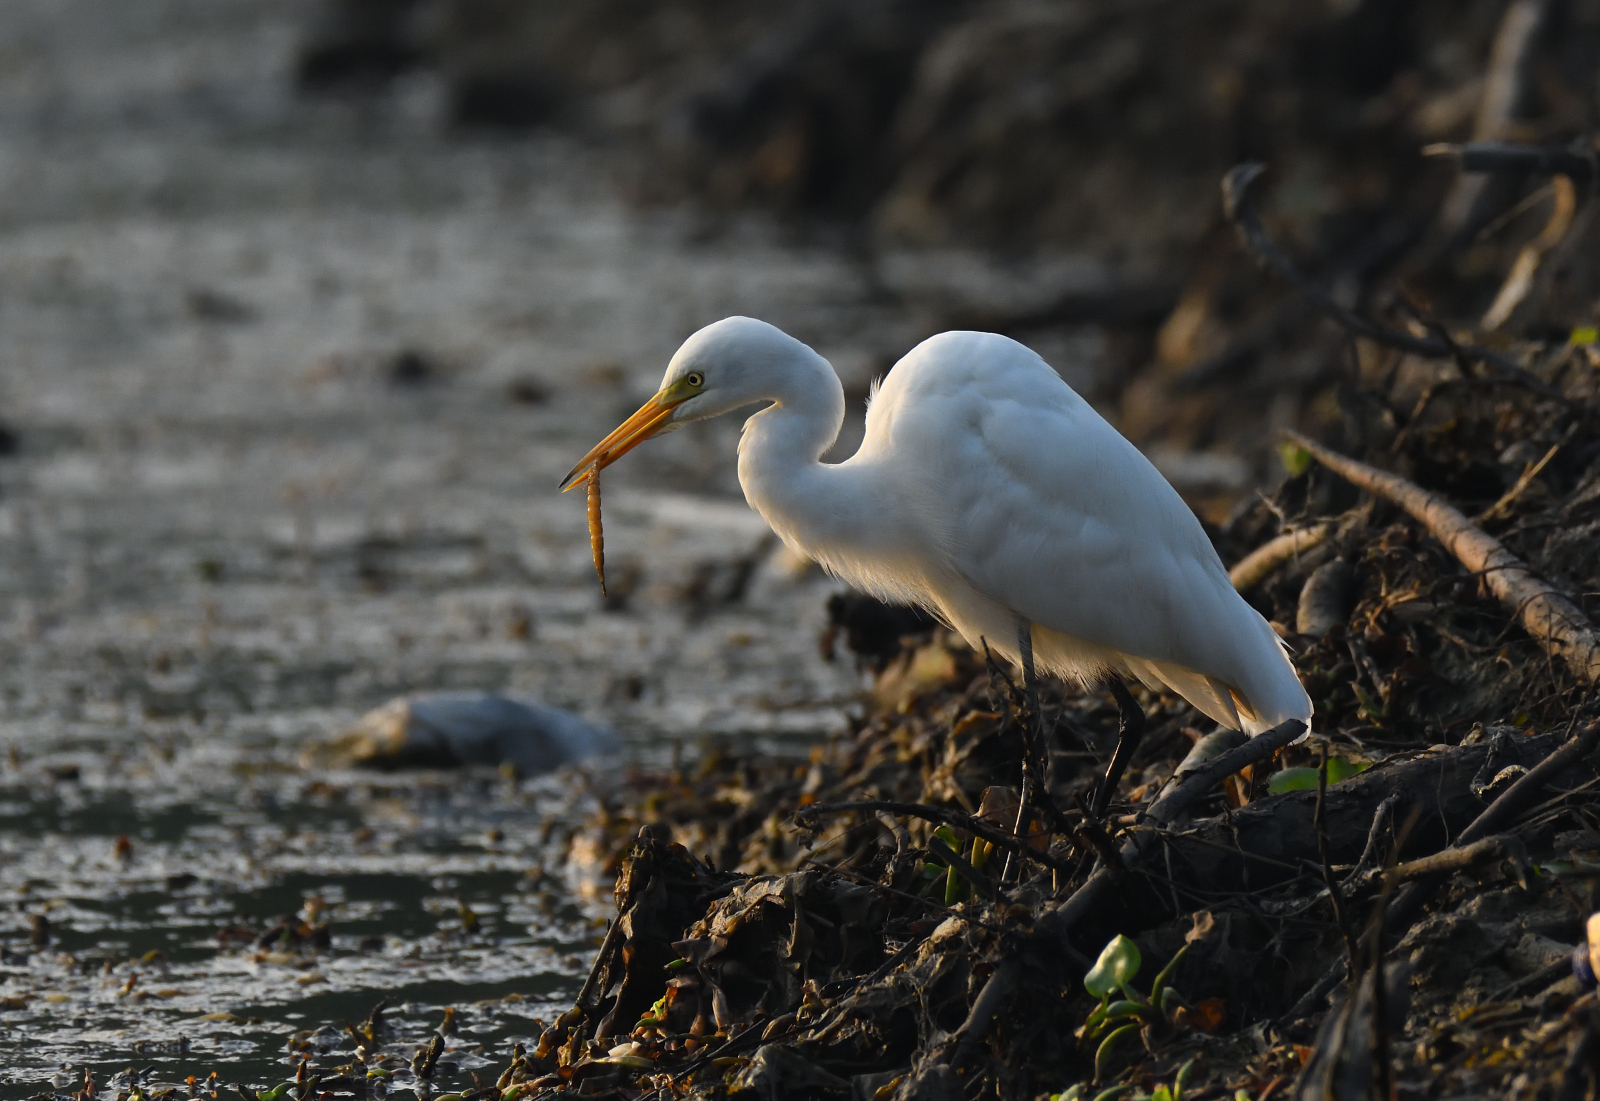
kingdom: Animalia
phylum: Chordata
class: Aves
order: Pelecaniformes
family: Ardeidae
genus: Egretta
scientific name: Egretta intermedia
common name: Intermediate egret
